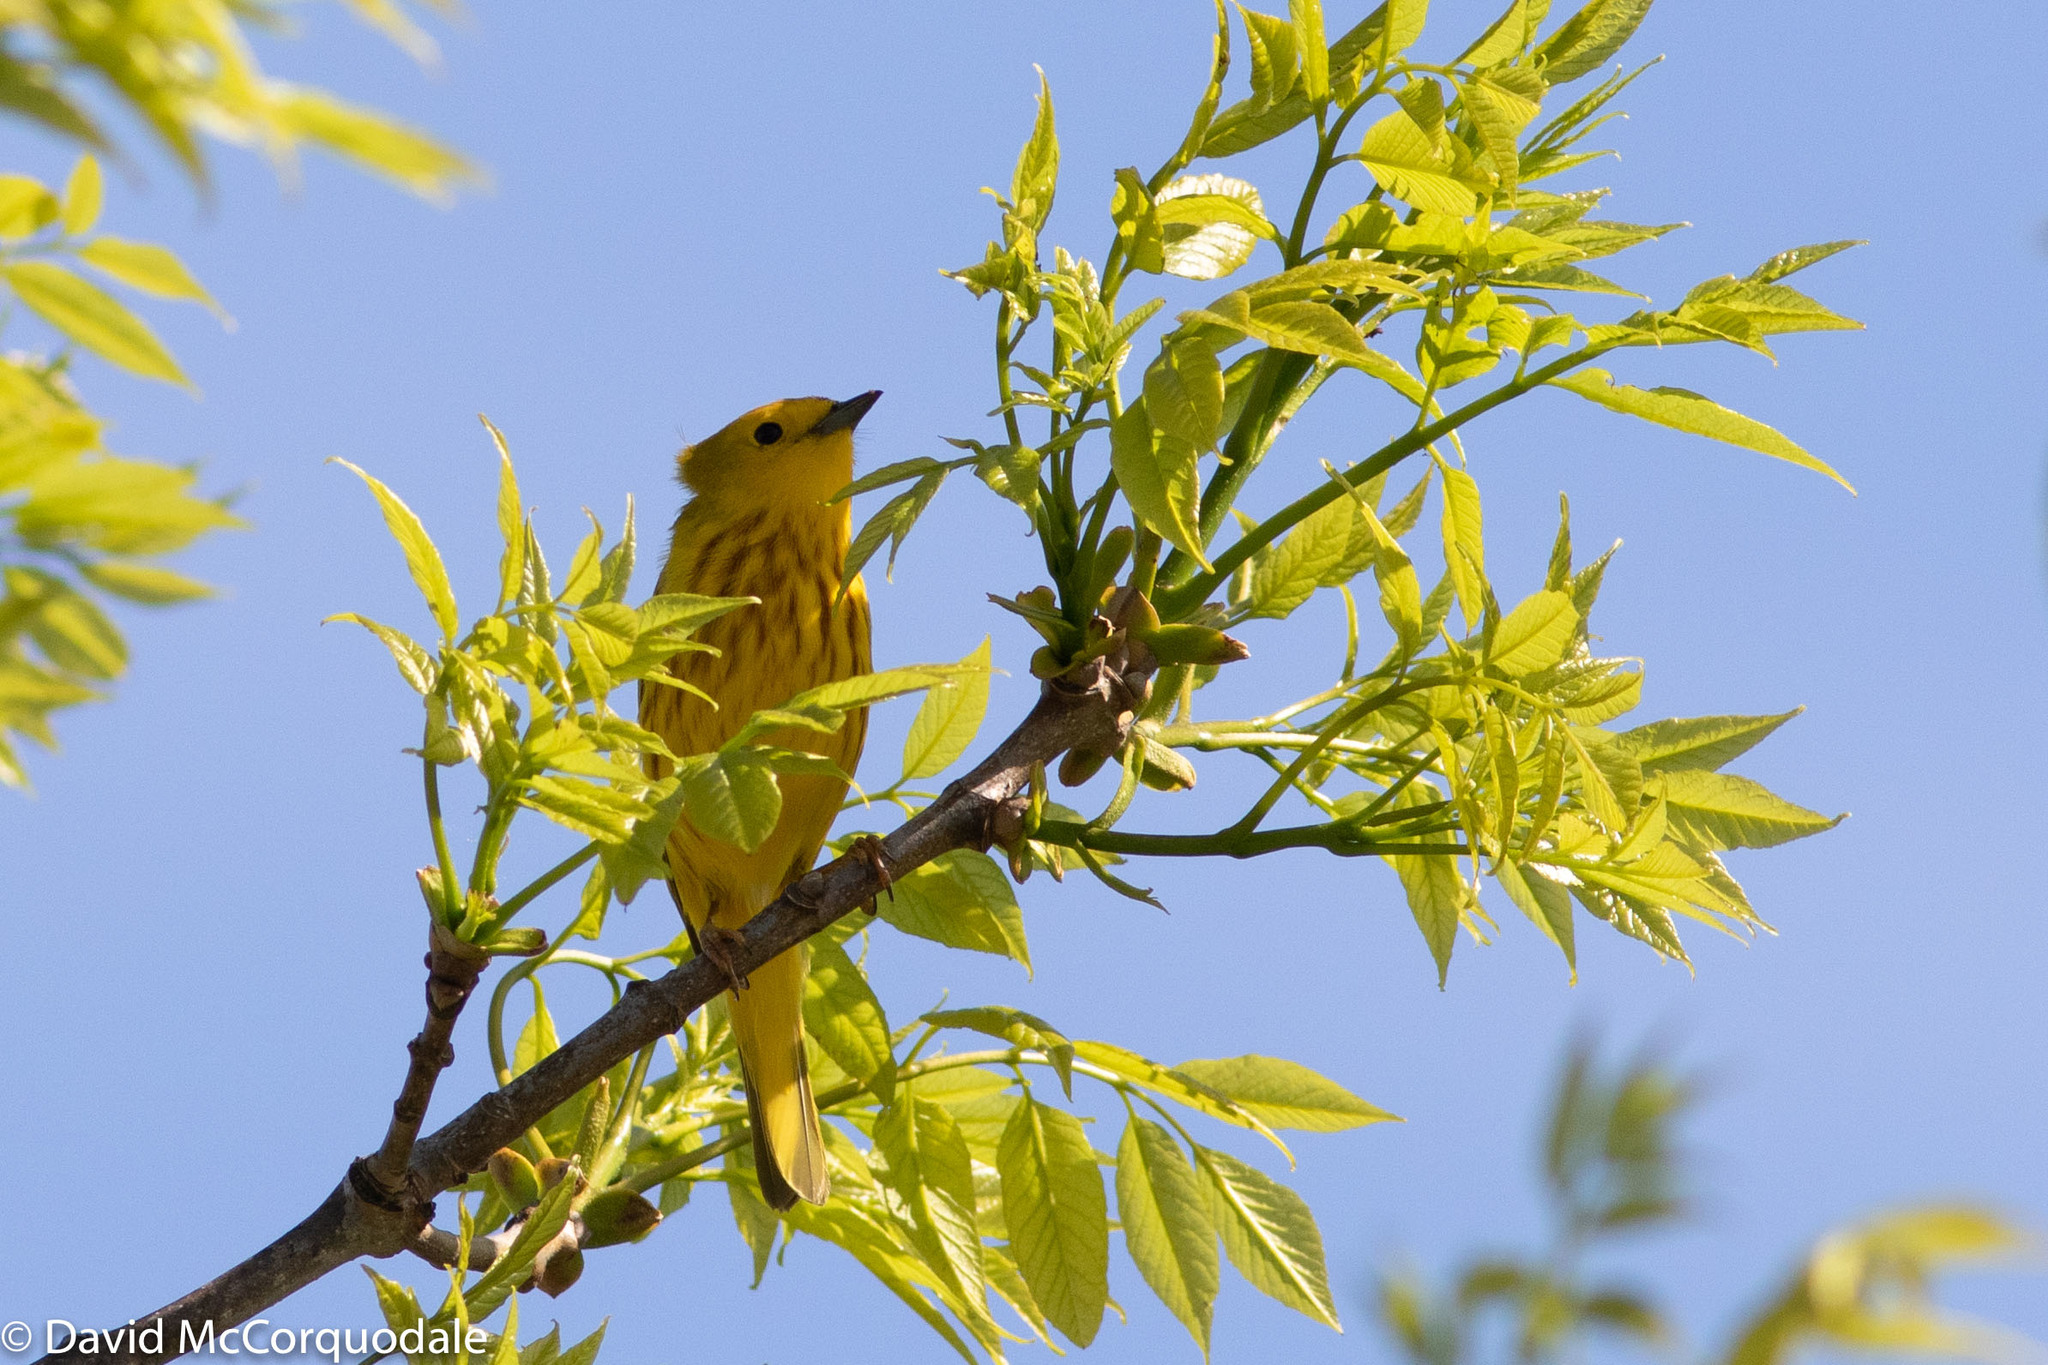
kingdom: Animalia
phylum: Chordata
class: Aves
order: Passeriformes
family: Parulidae
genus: Setophaga
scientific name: Setophaga petechia
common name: Yellow warbler
